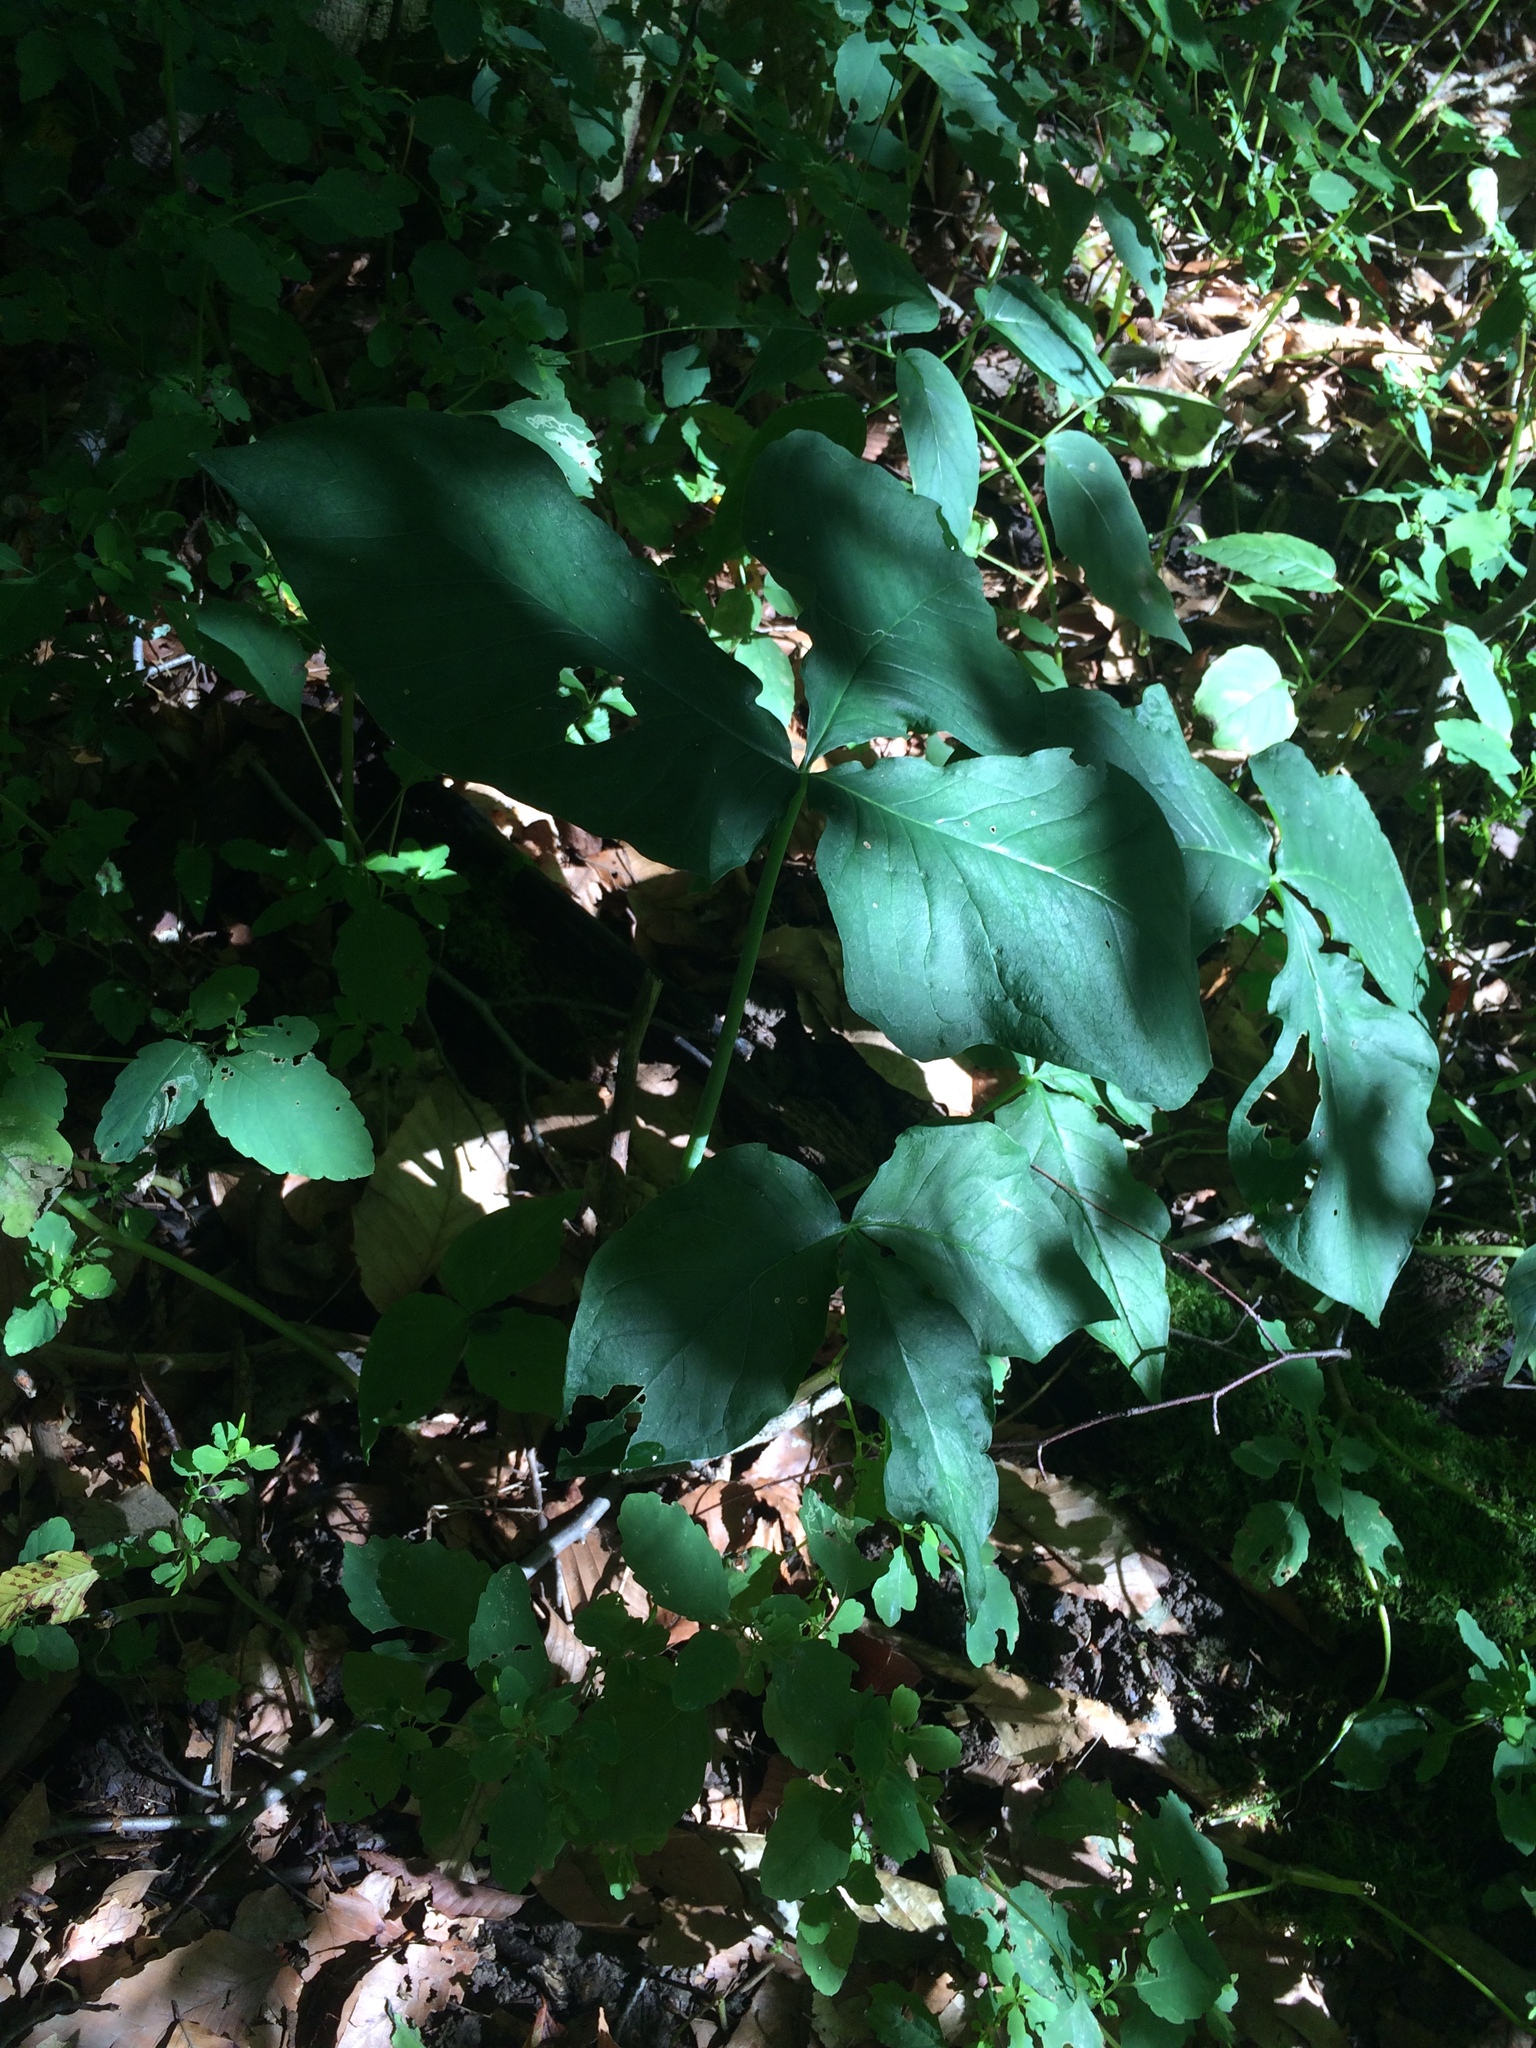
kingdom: Plantae
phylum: Tracheophyta
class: Liliopsida
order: Alismatales
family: Araceae
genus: Arisaema
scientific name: Arisaema triphyllum
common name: Jack-in-the-pulpit
